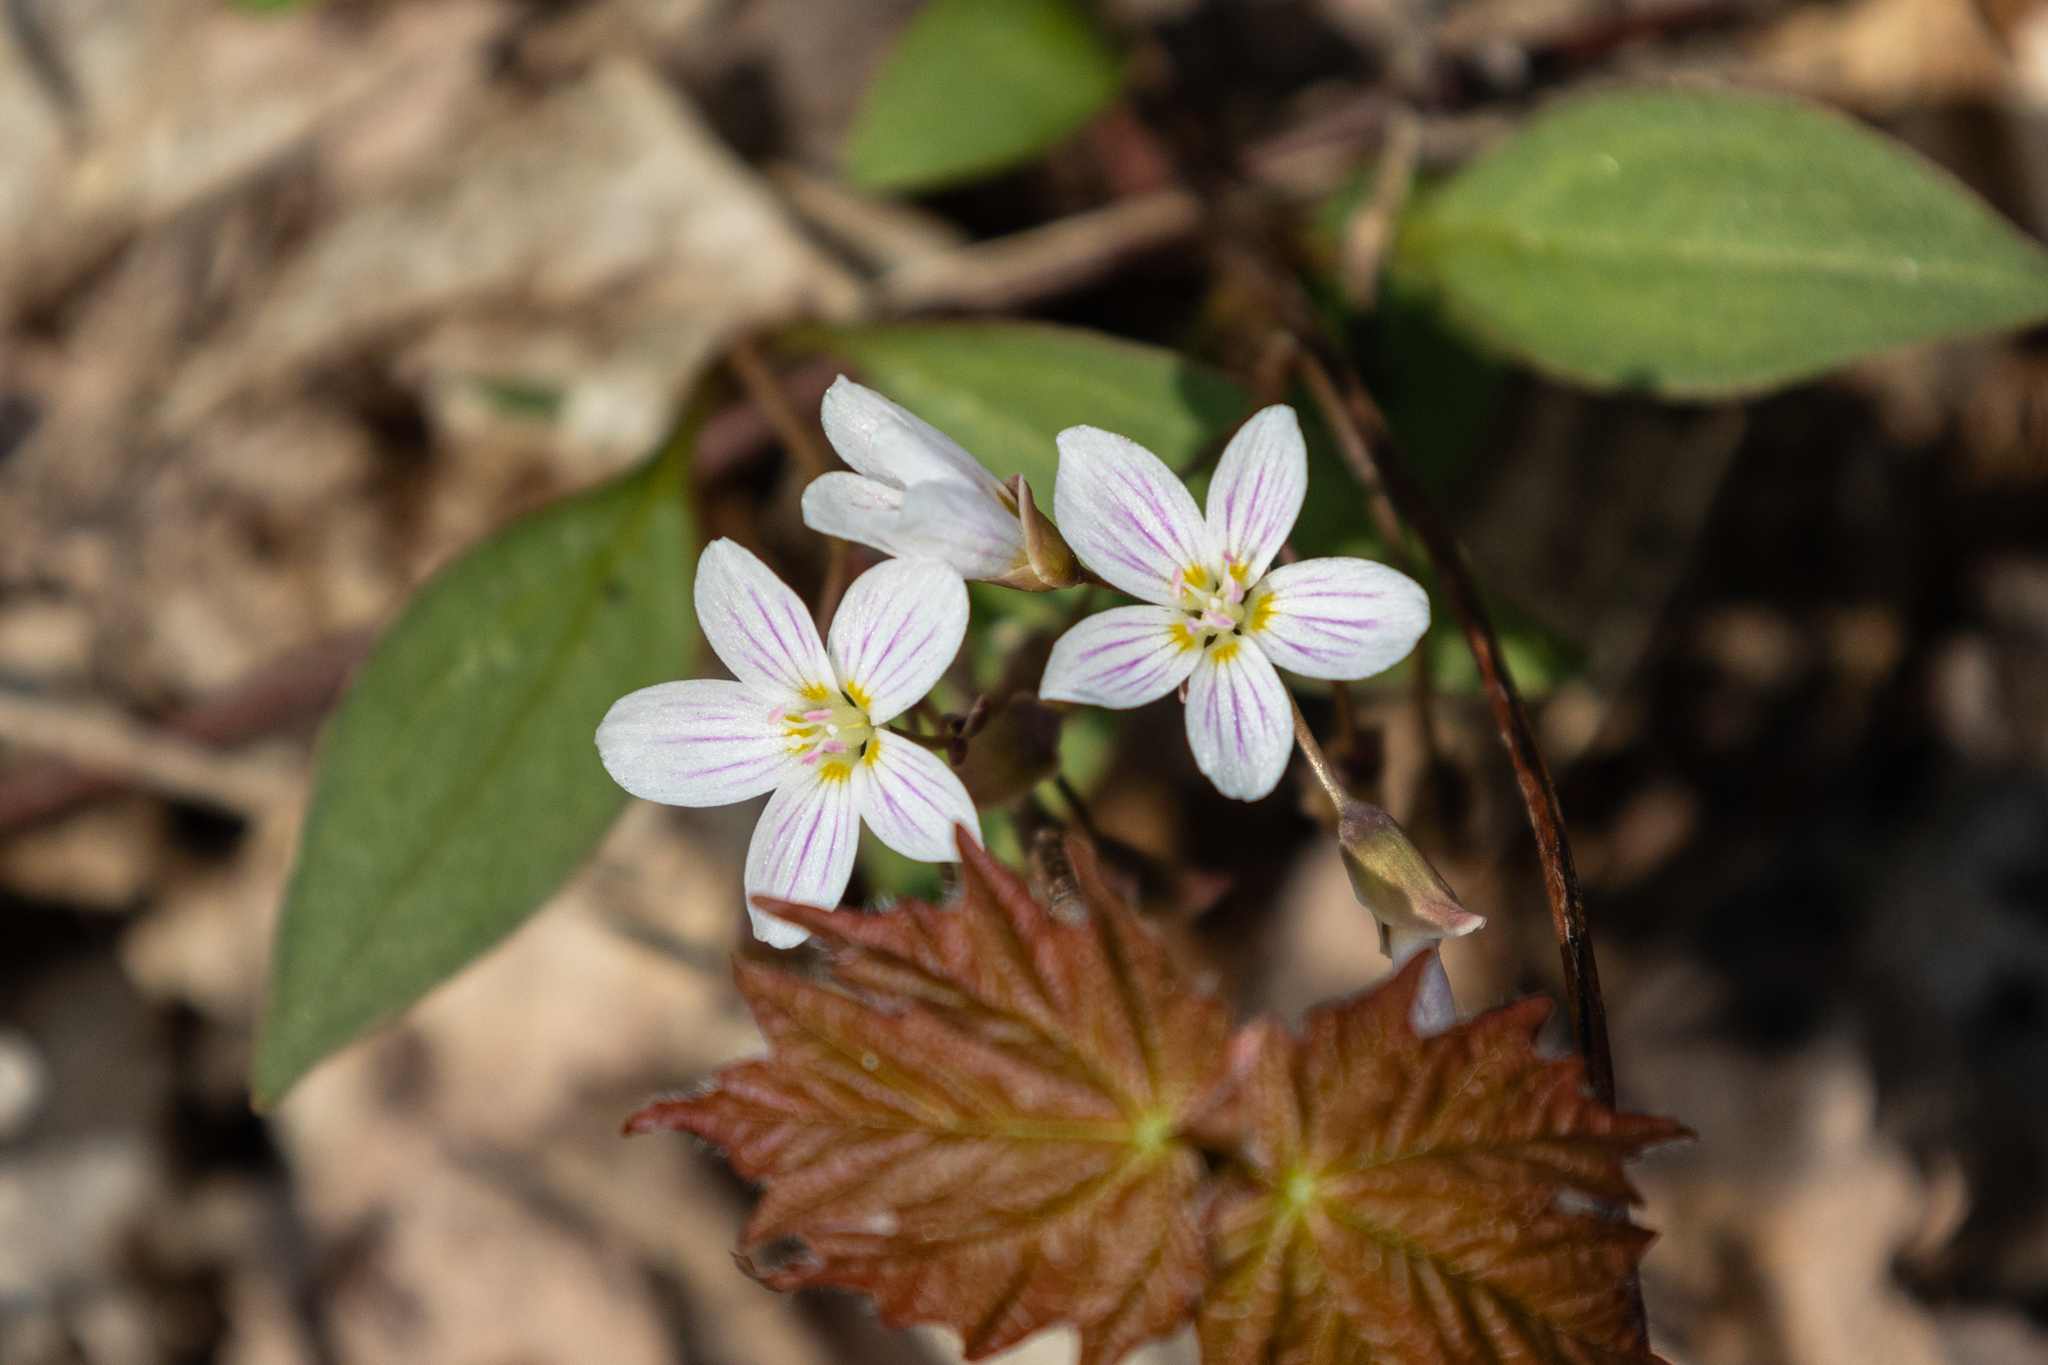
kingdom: Plantae
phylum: Tracheophyta
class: Magnoliopsida
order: Caryophyllales
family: Montiaceae
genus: Claytonia
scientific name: Claytonia caroliniana
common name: Carolina spring beauty
